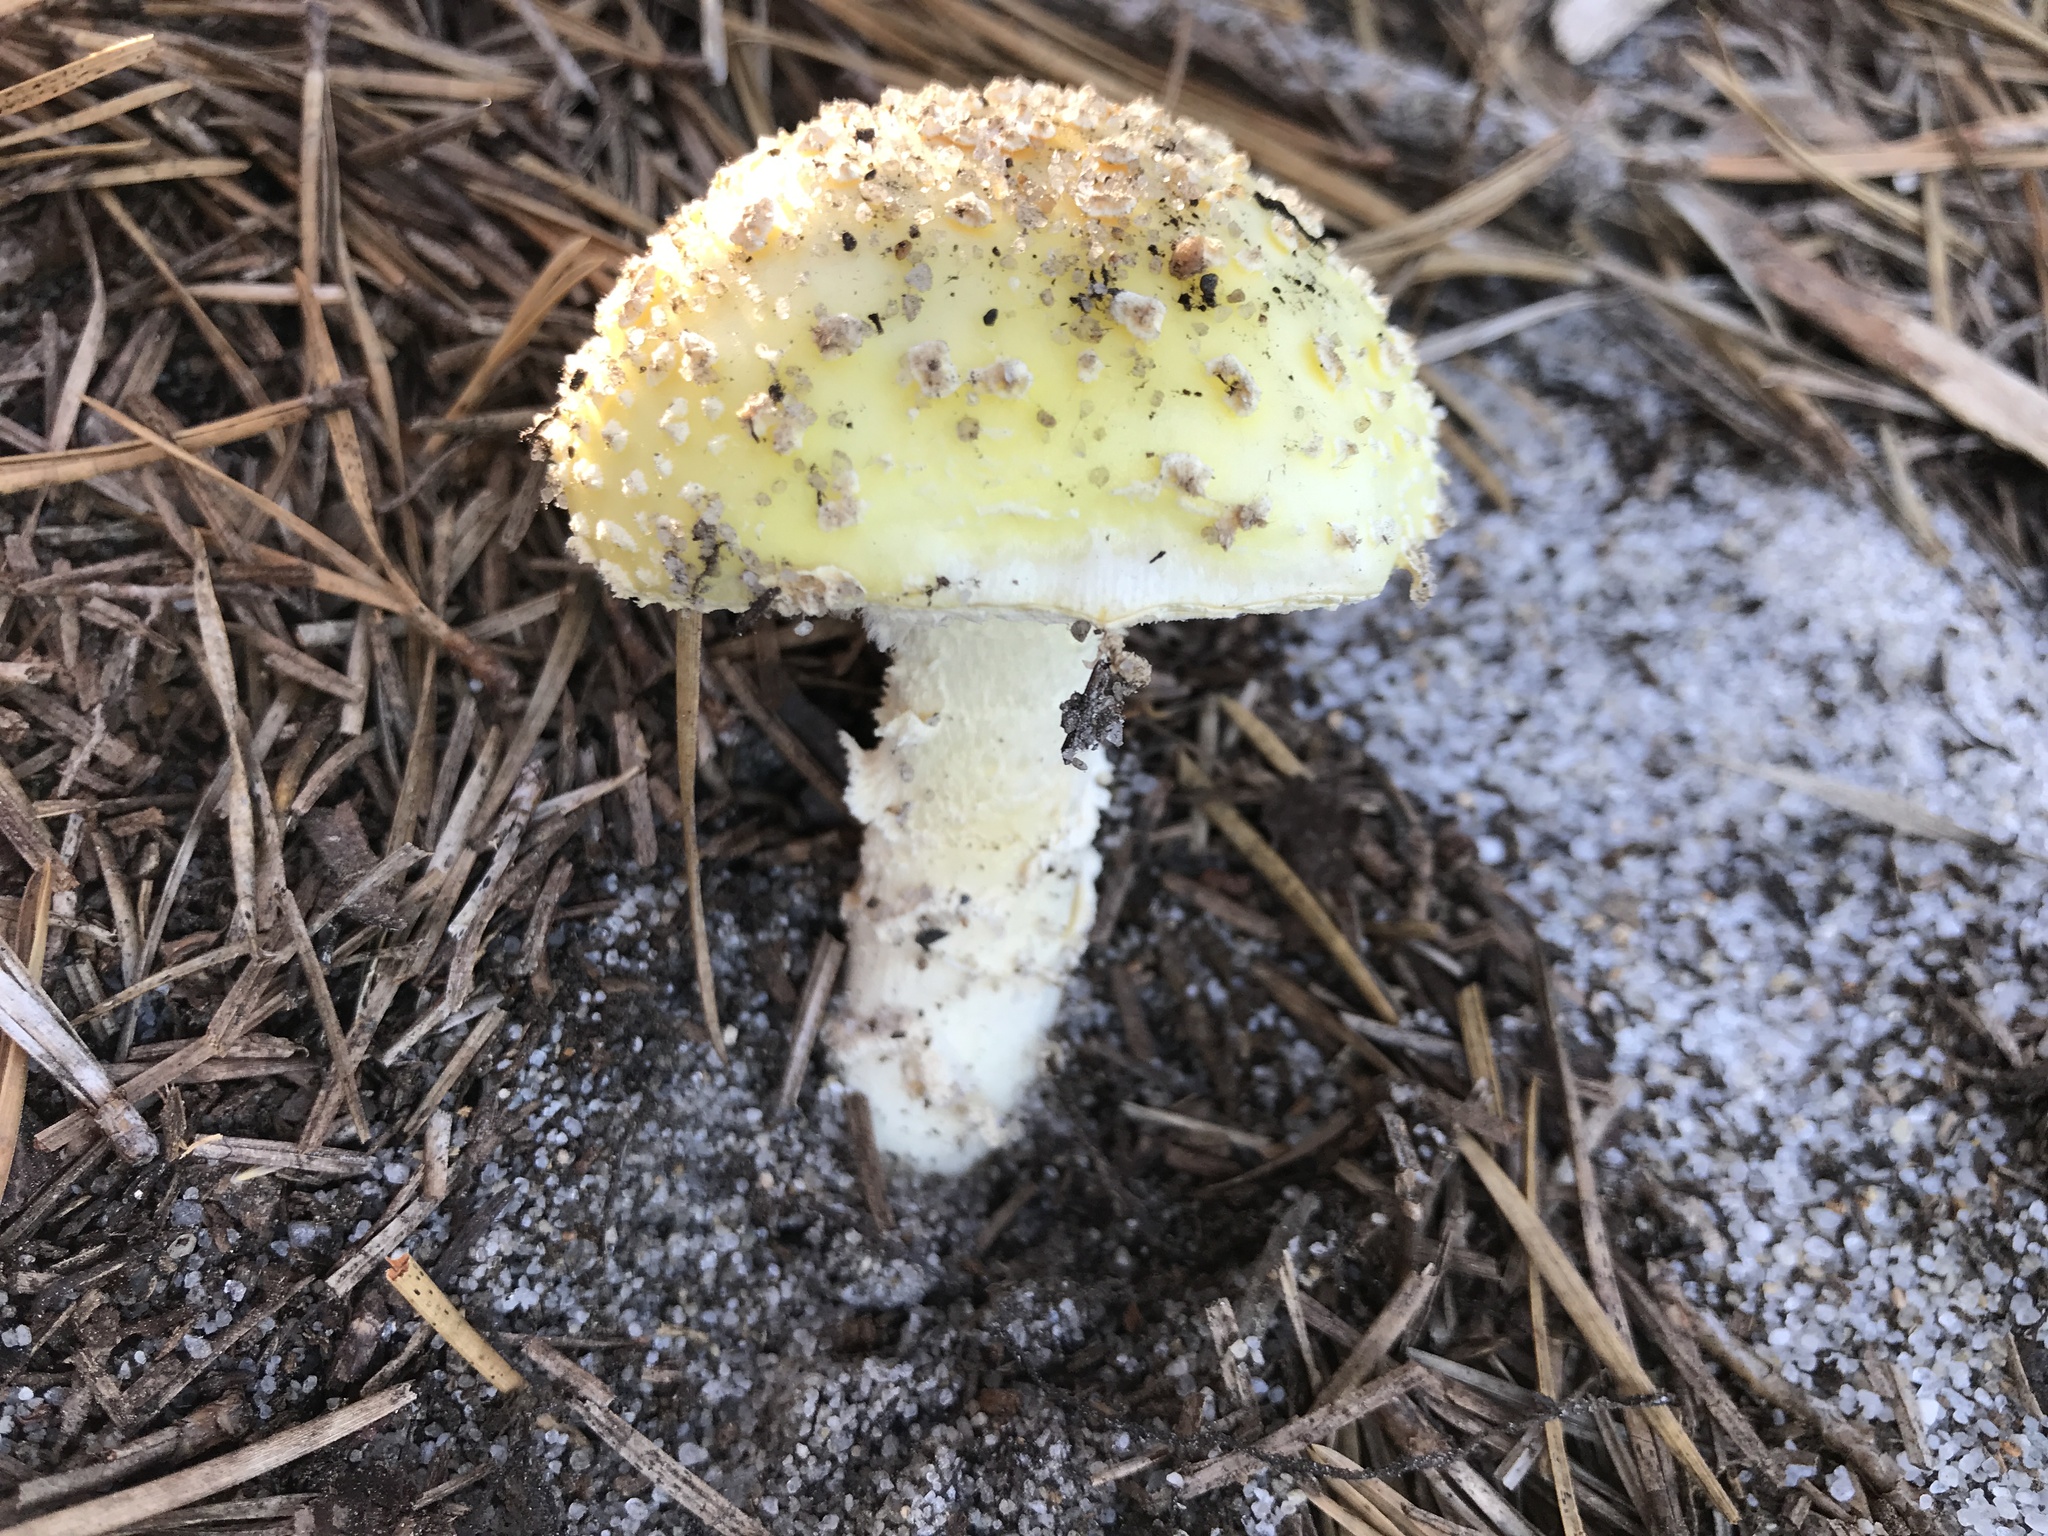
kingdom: Fungi
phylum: Basidiomycota
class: Agaricomycetes
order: Agaricales
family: Amanitaceae
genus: Amanita
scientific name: Amanita muscaria
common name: Fly agaric
